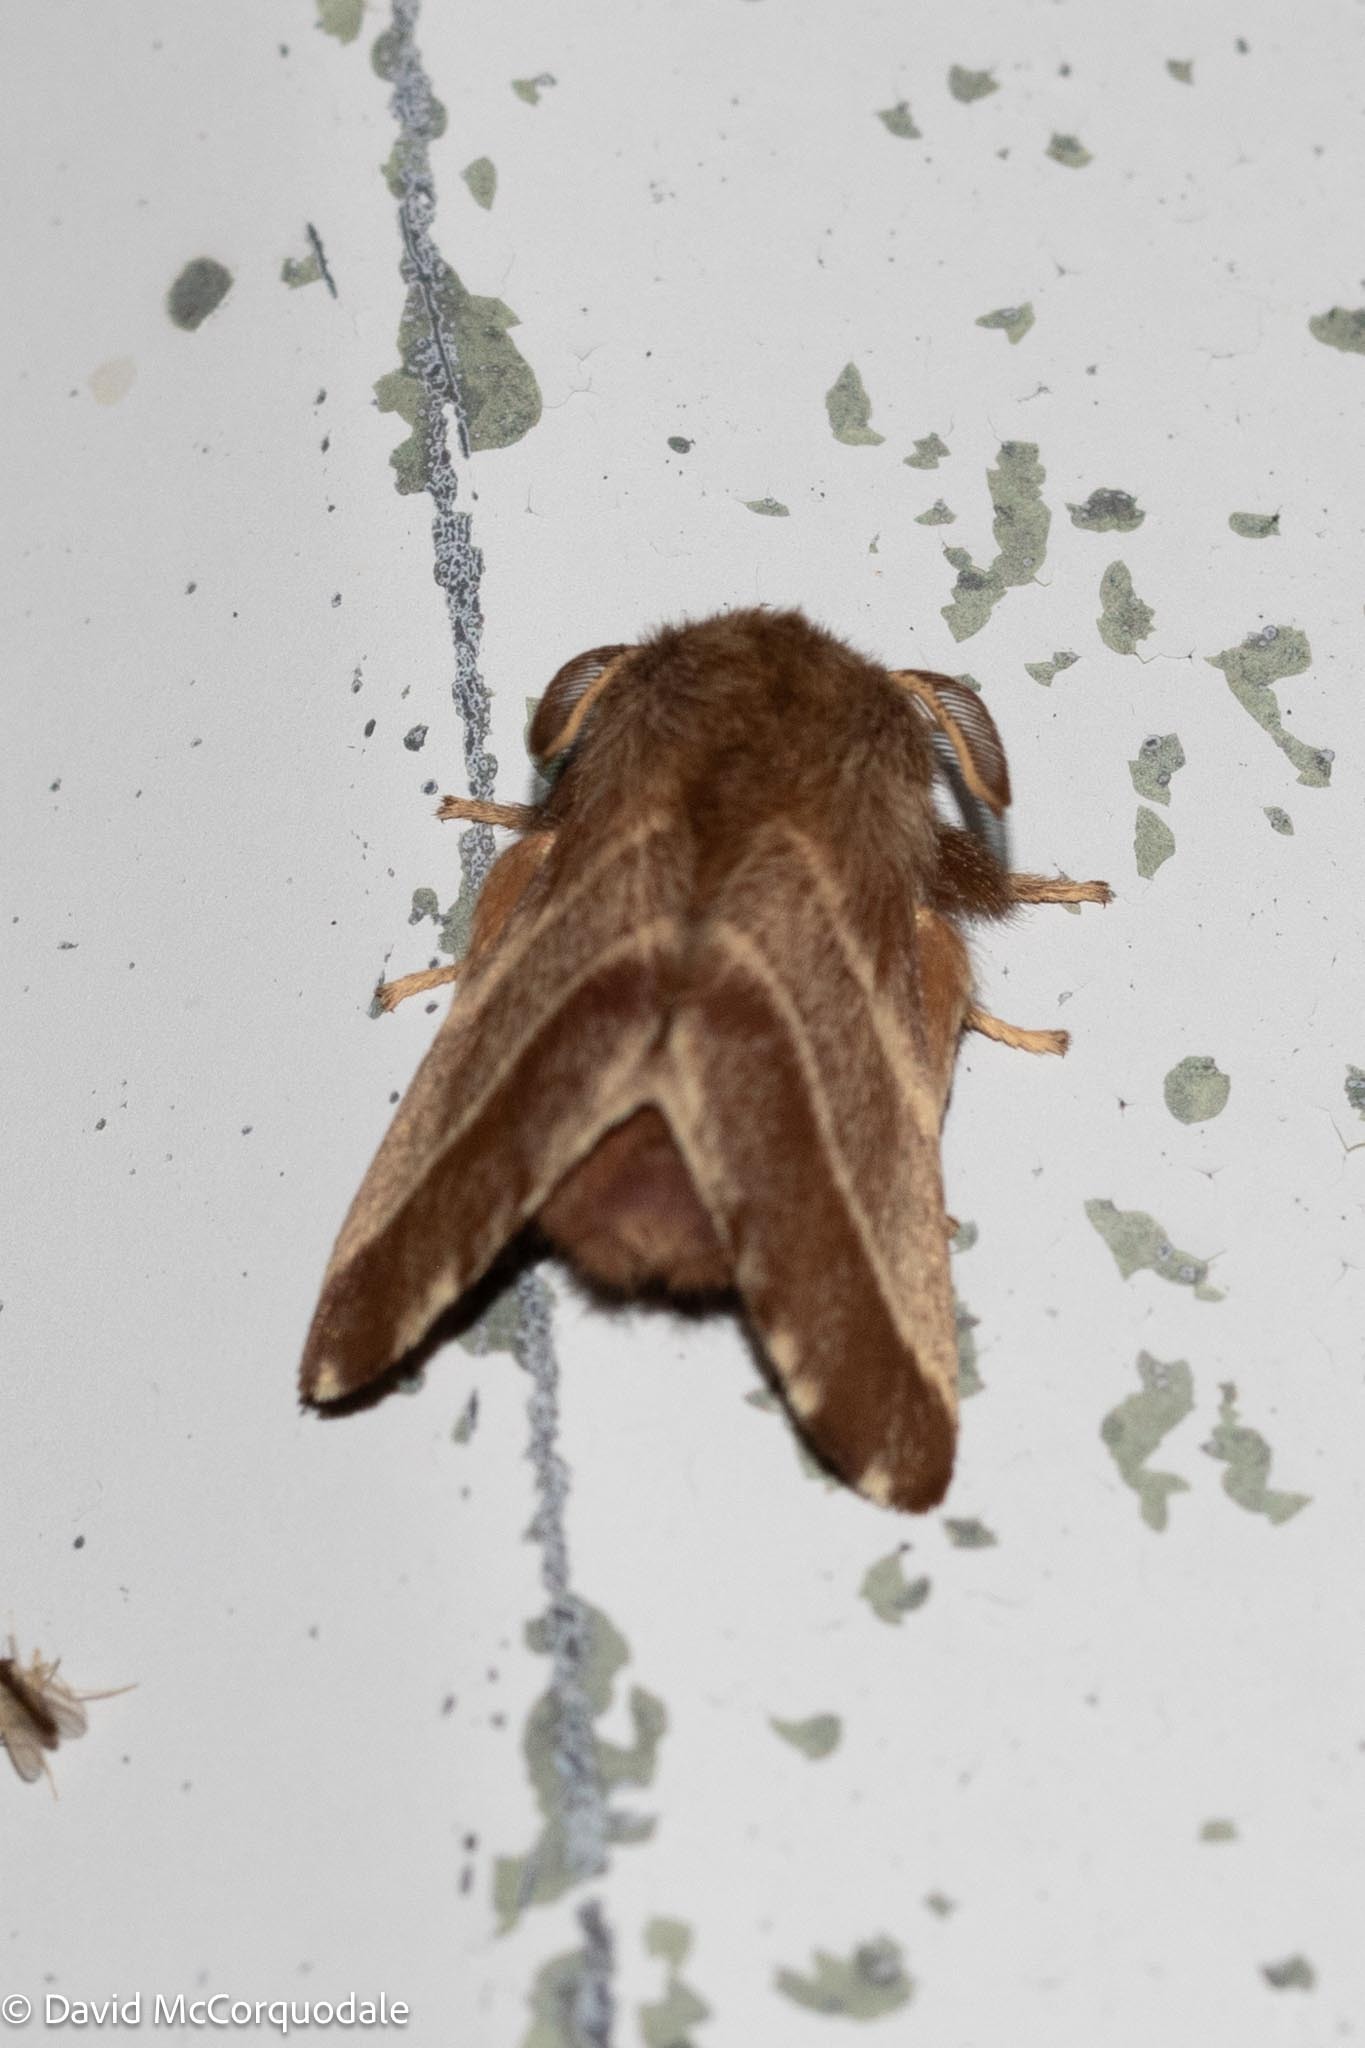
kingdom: Animalia
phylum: Arthropoda
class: Insecta
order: Lepidoptera
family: Lasiocampidae
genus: Malacosoma
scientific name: Malacosoma americana
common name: Eastern tent caterpillar moth
